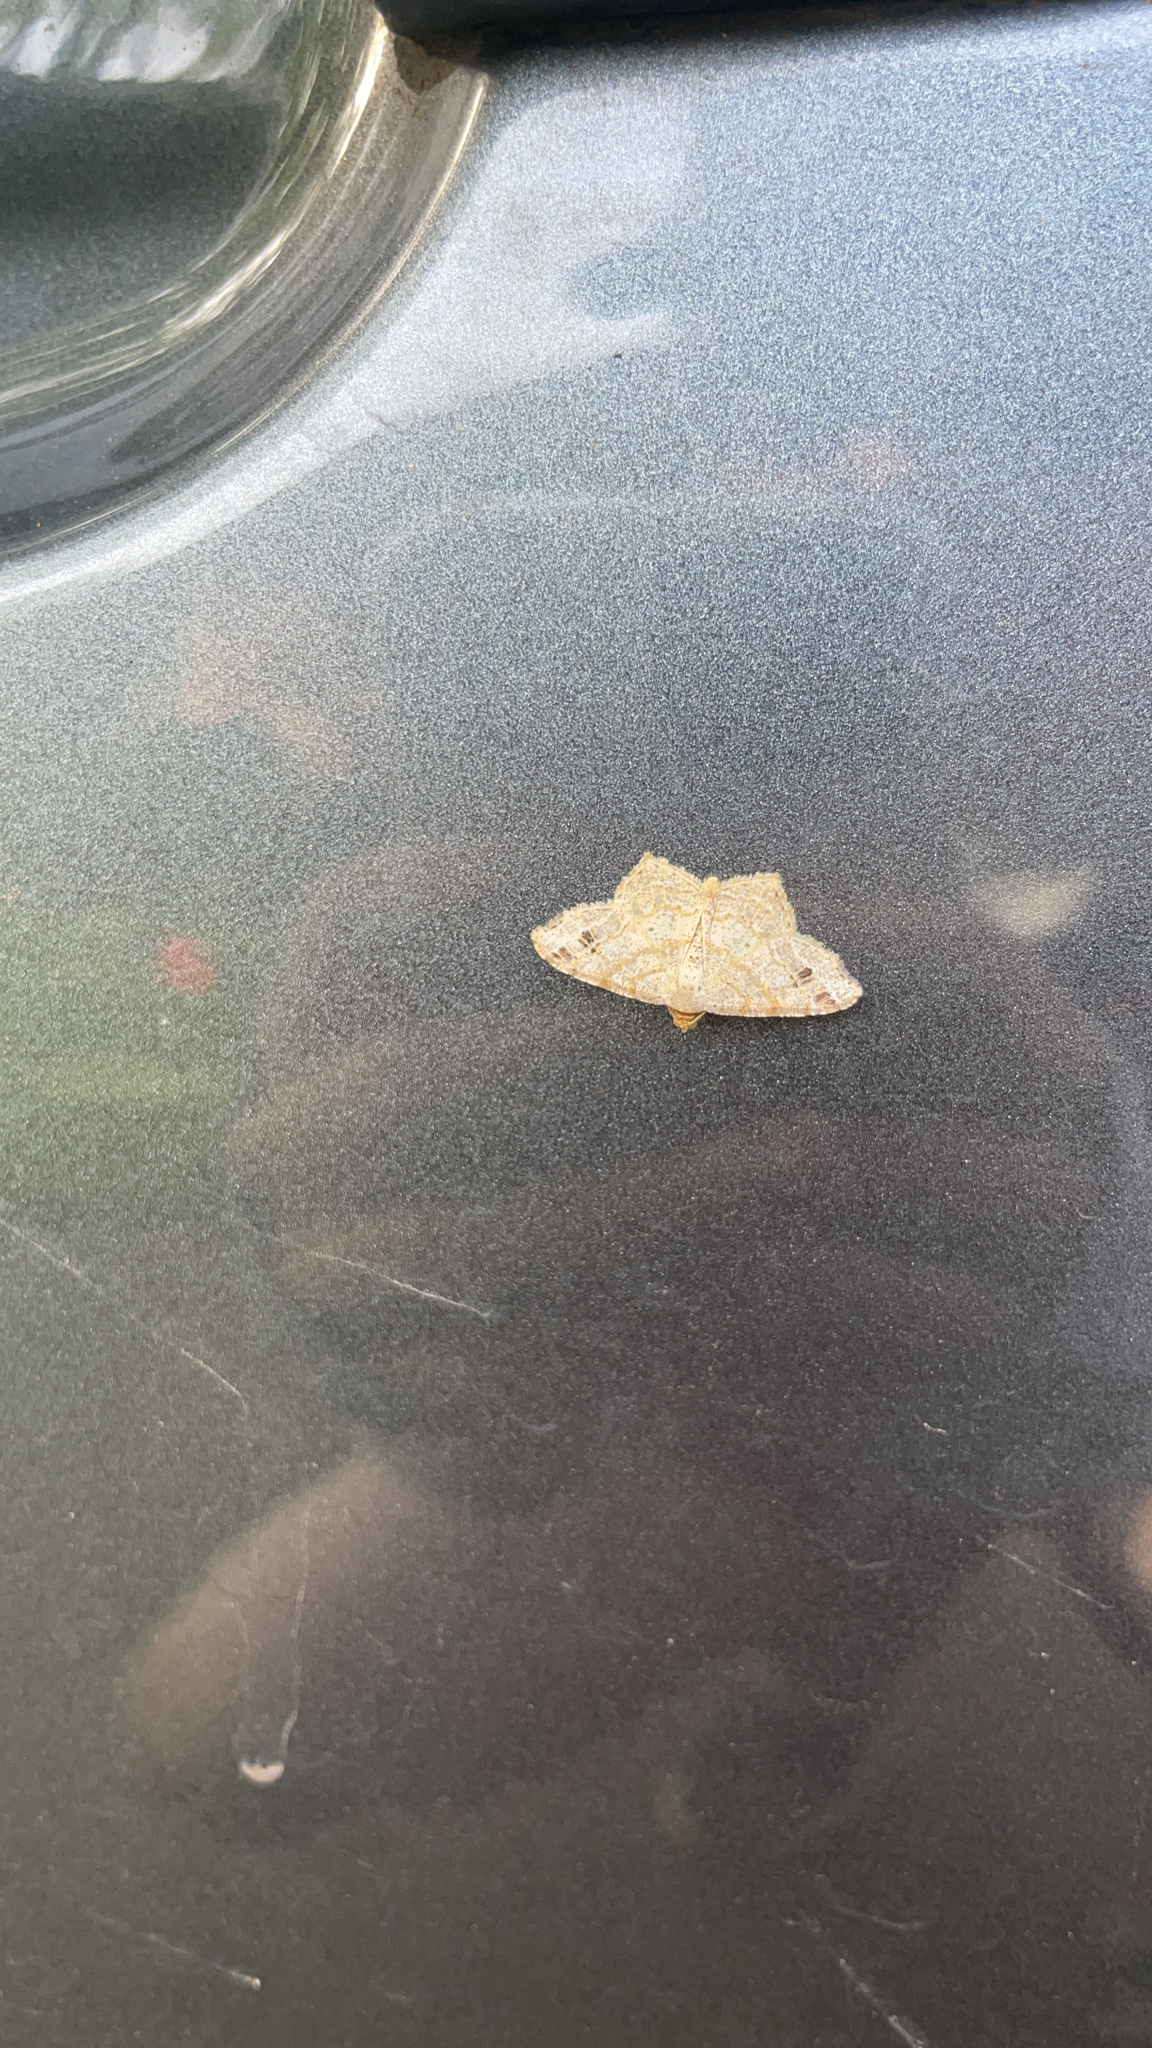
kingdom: Animalia
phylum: Arthropoda
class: Insecta
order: Lepidoptera
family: Geometridae
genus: Macaria
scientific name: Macaria aemulataria
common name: Common angle
